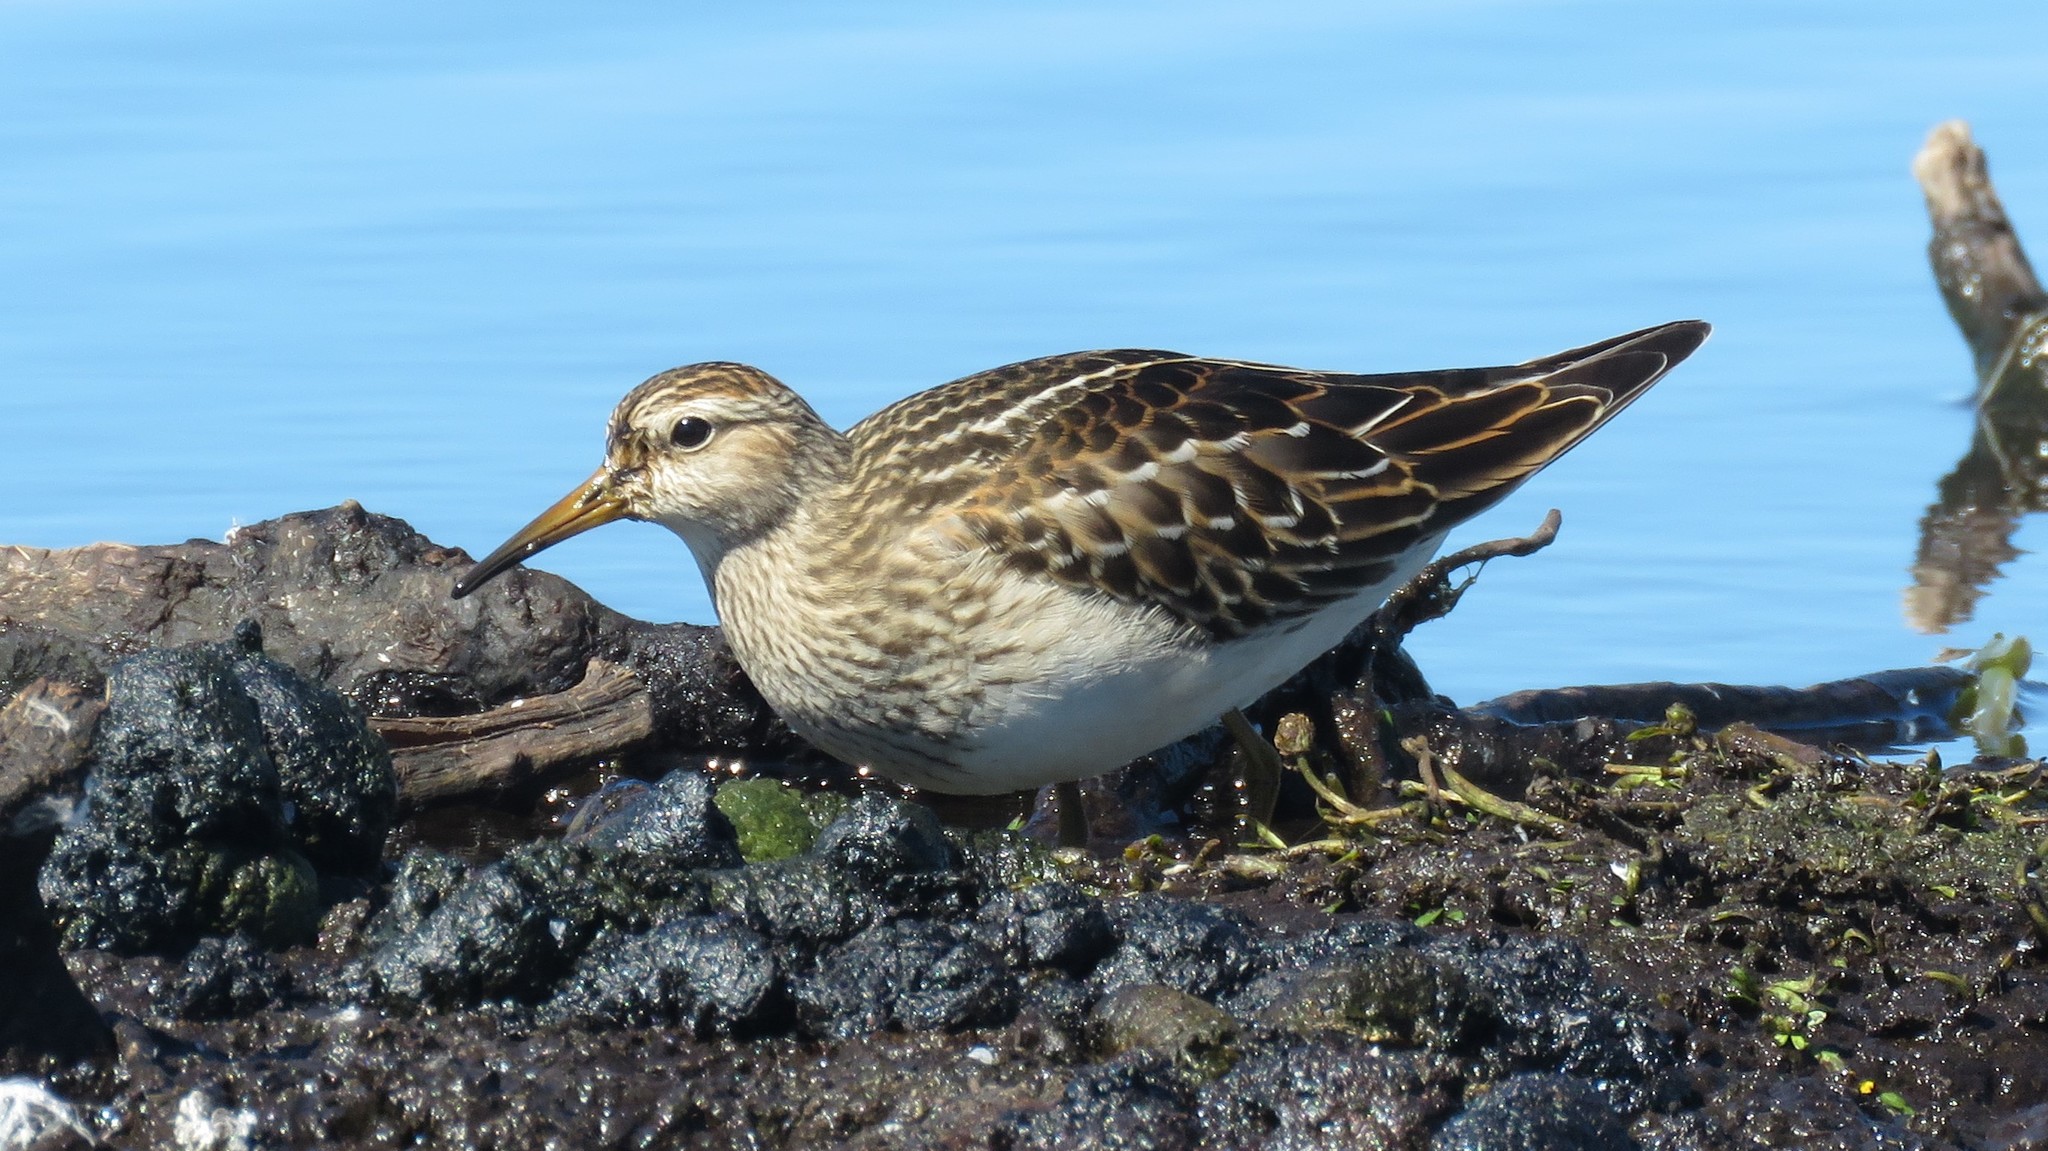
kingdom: Animalia
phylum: Chordata
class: Aves
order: Charadriiformes
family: Scolopacidae
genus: Calidris
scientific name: Calidris melanotos
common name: Pectoral sandpiper
